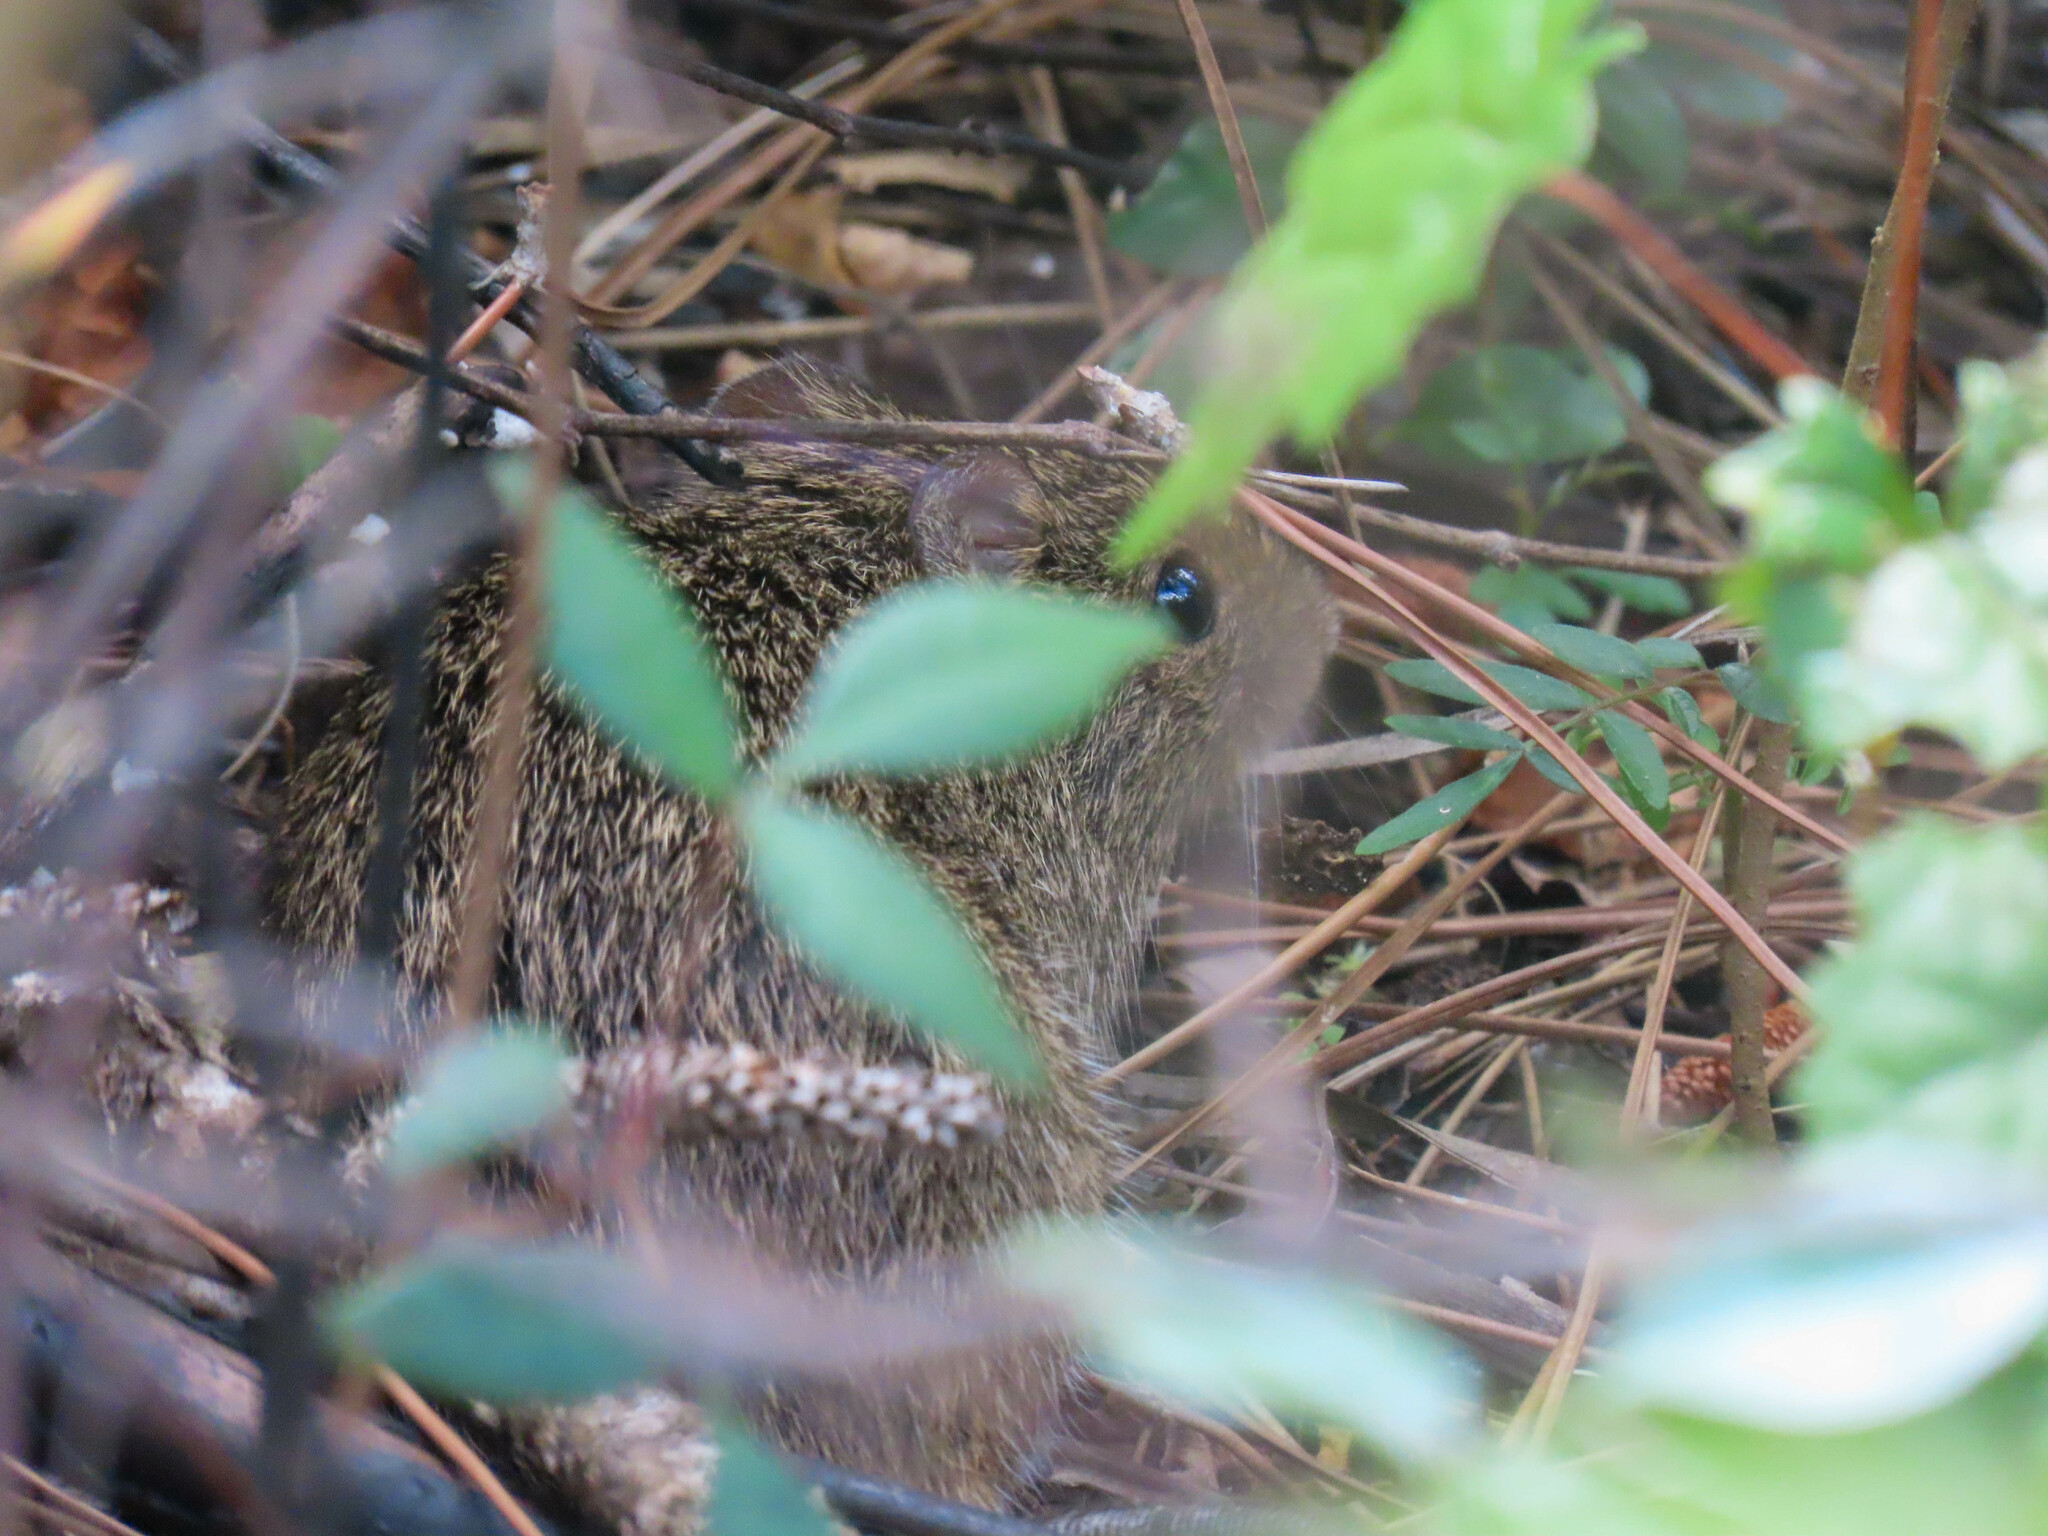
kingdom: Animalia
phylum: Chordata
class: Mammalia
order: Rodentia
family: Cricetidae
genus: Sigmodon
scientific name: Sigmodon hispidus
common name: Hispid cotton rat
